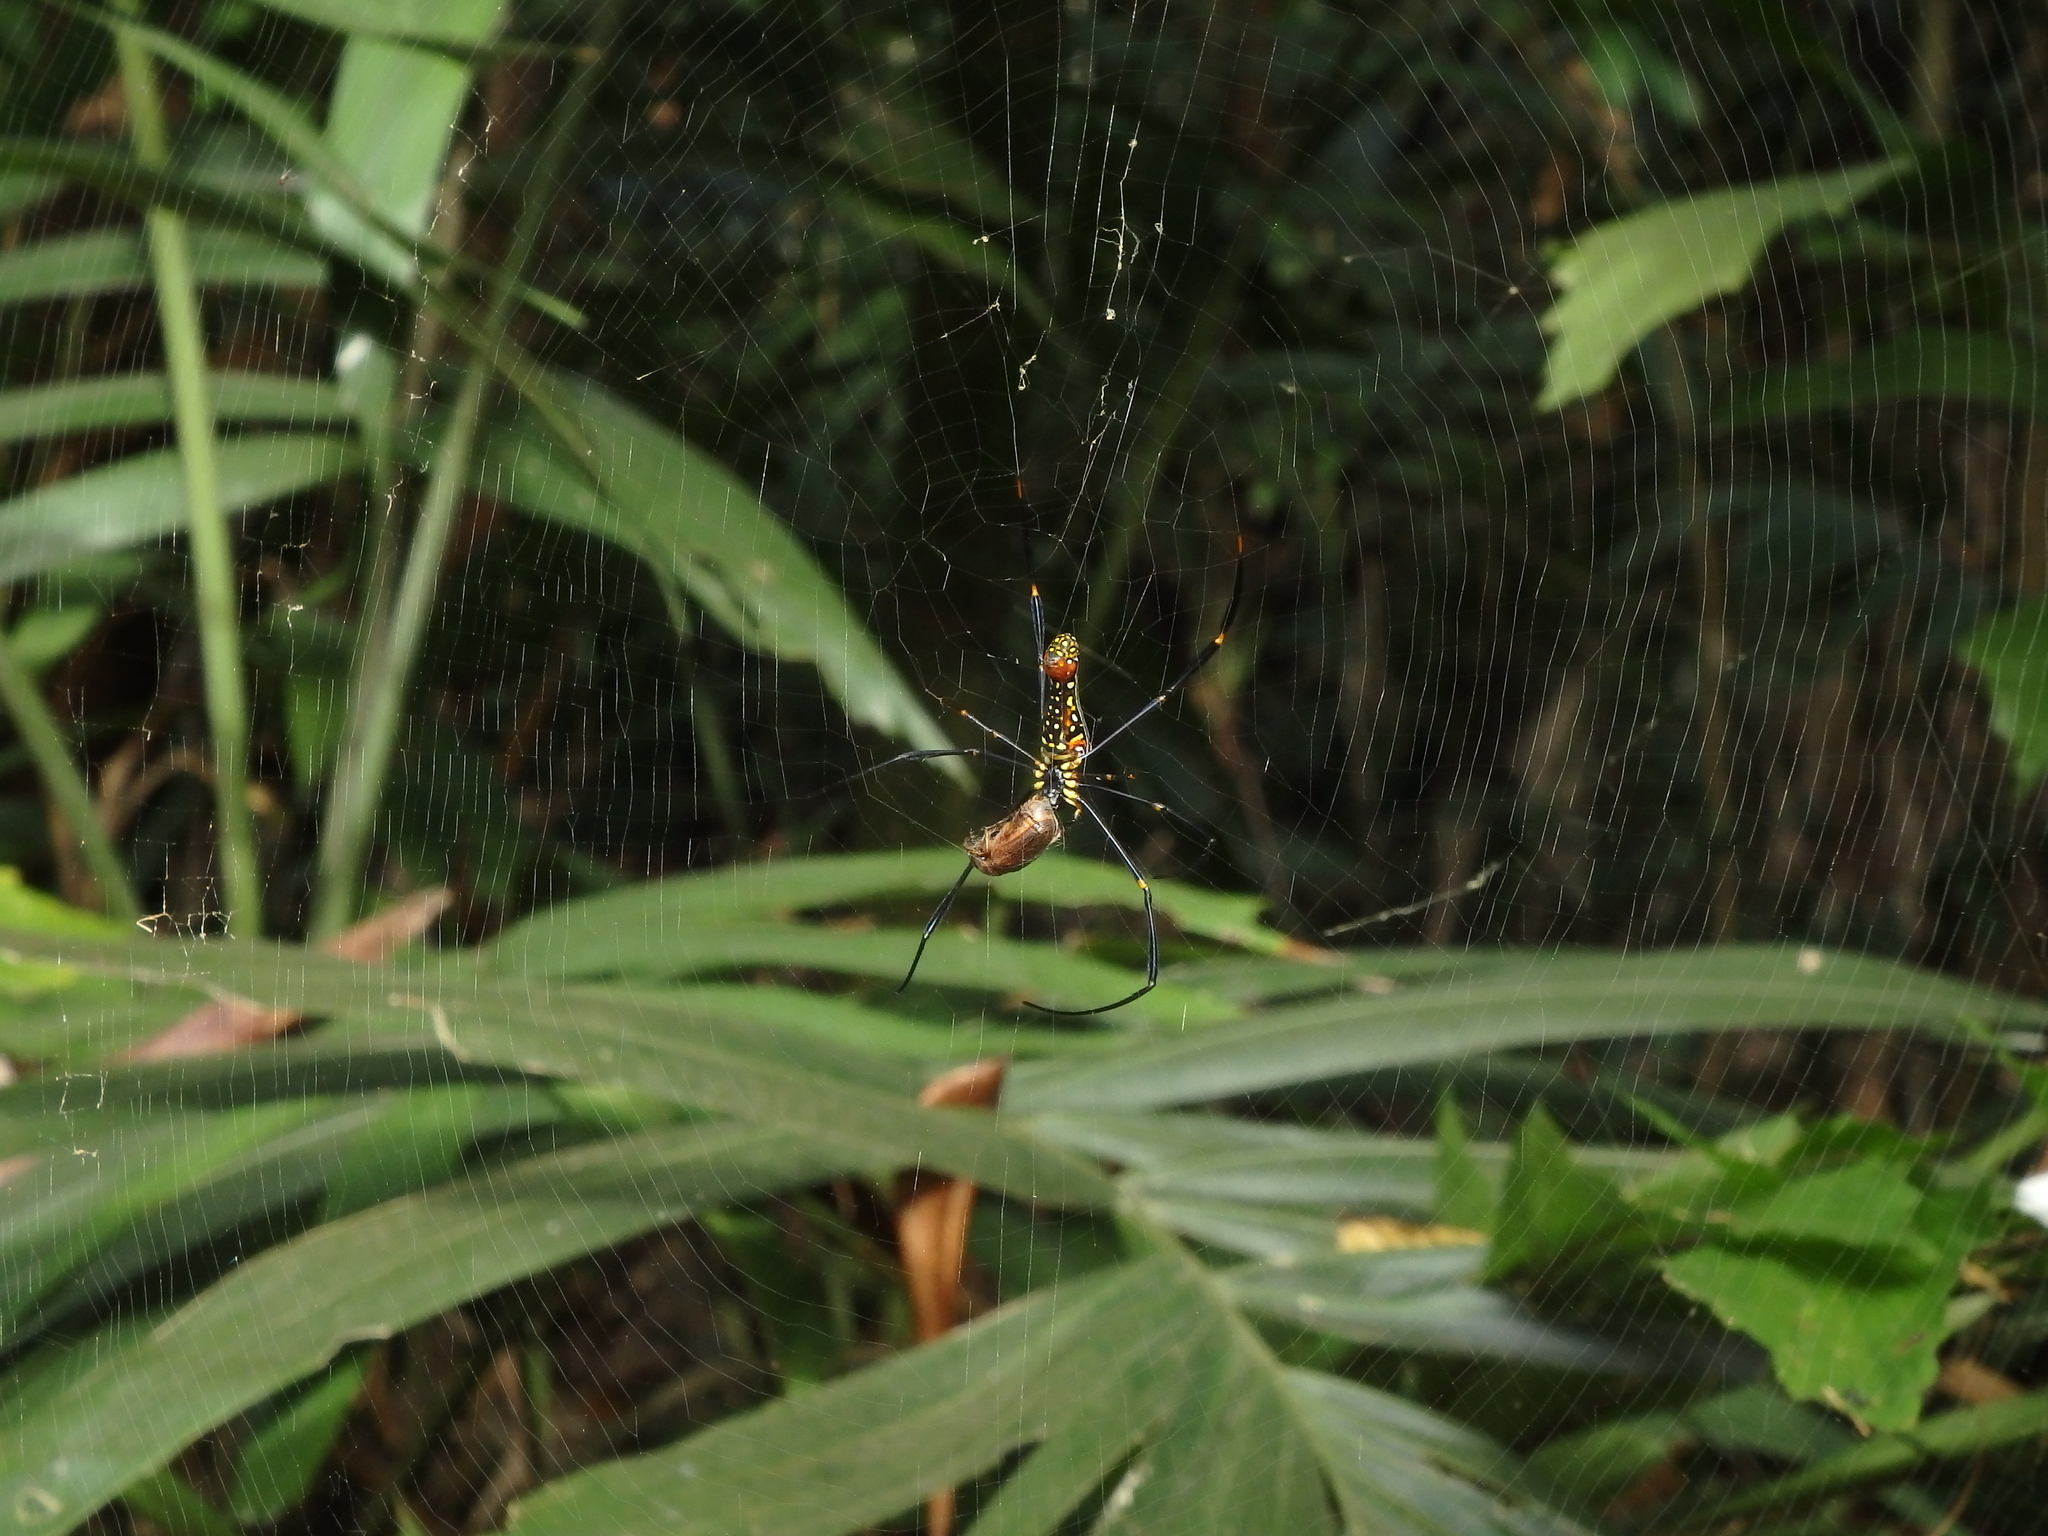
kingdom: Animalia
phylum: Arthropoda
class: Arachnida
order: Araneae
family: Araneidae
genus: Nephila
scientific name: Nephila pilipes
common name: Giant golden orb weaver
